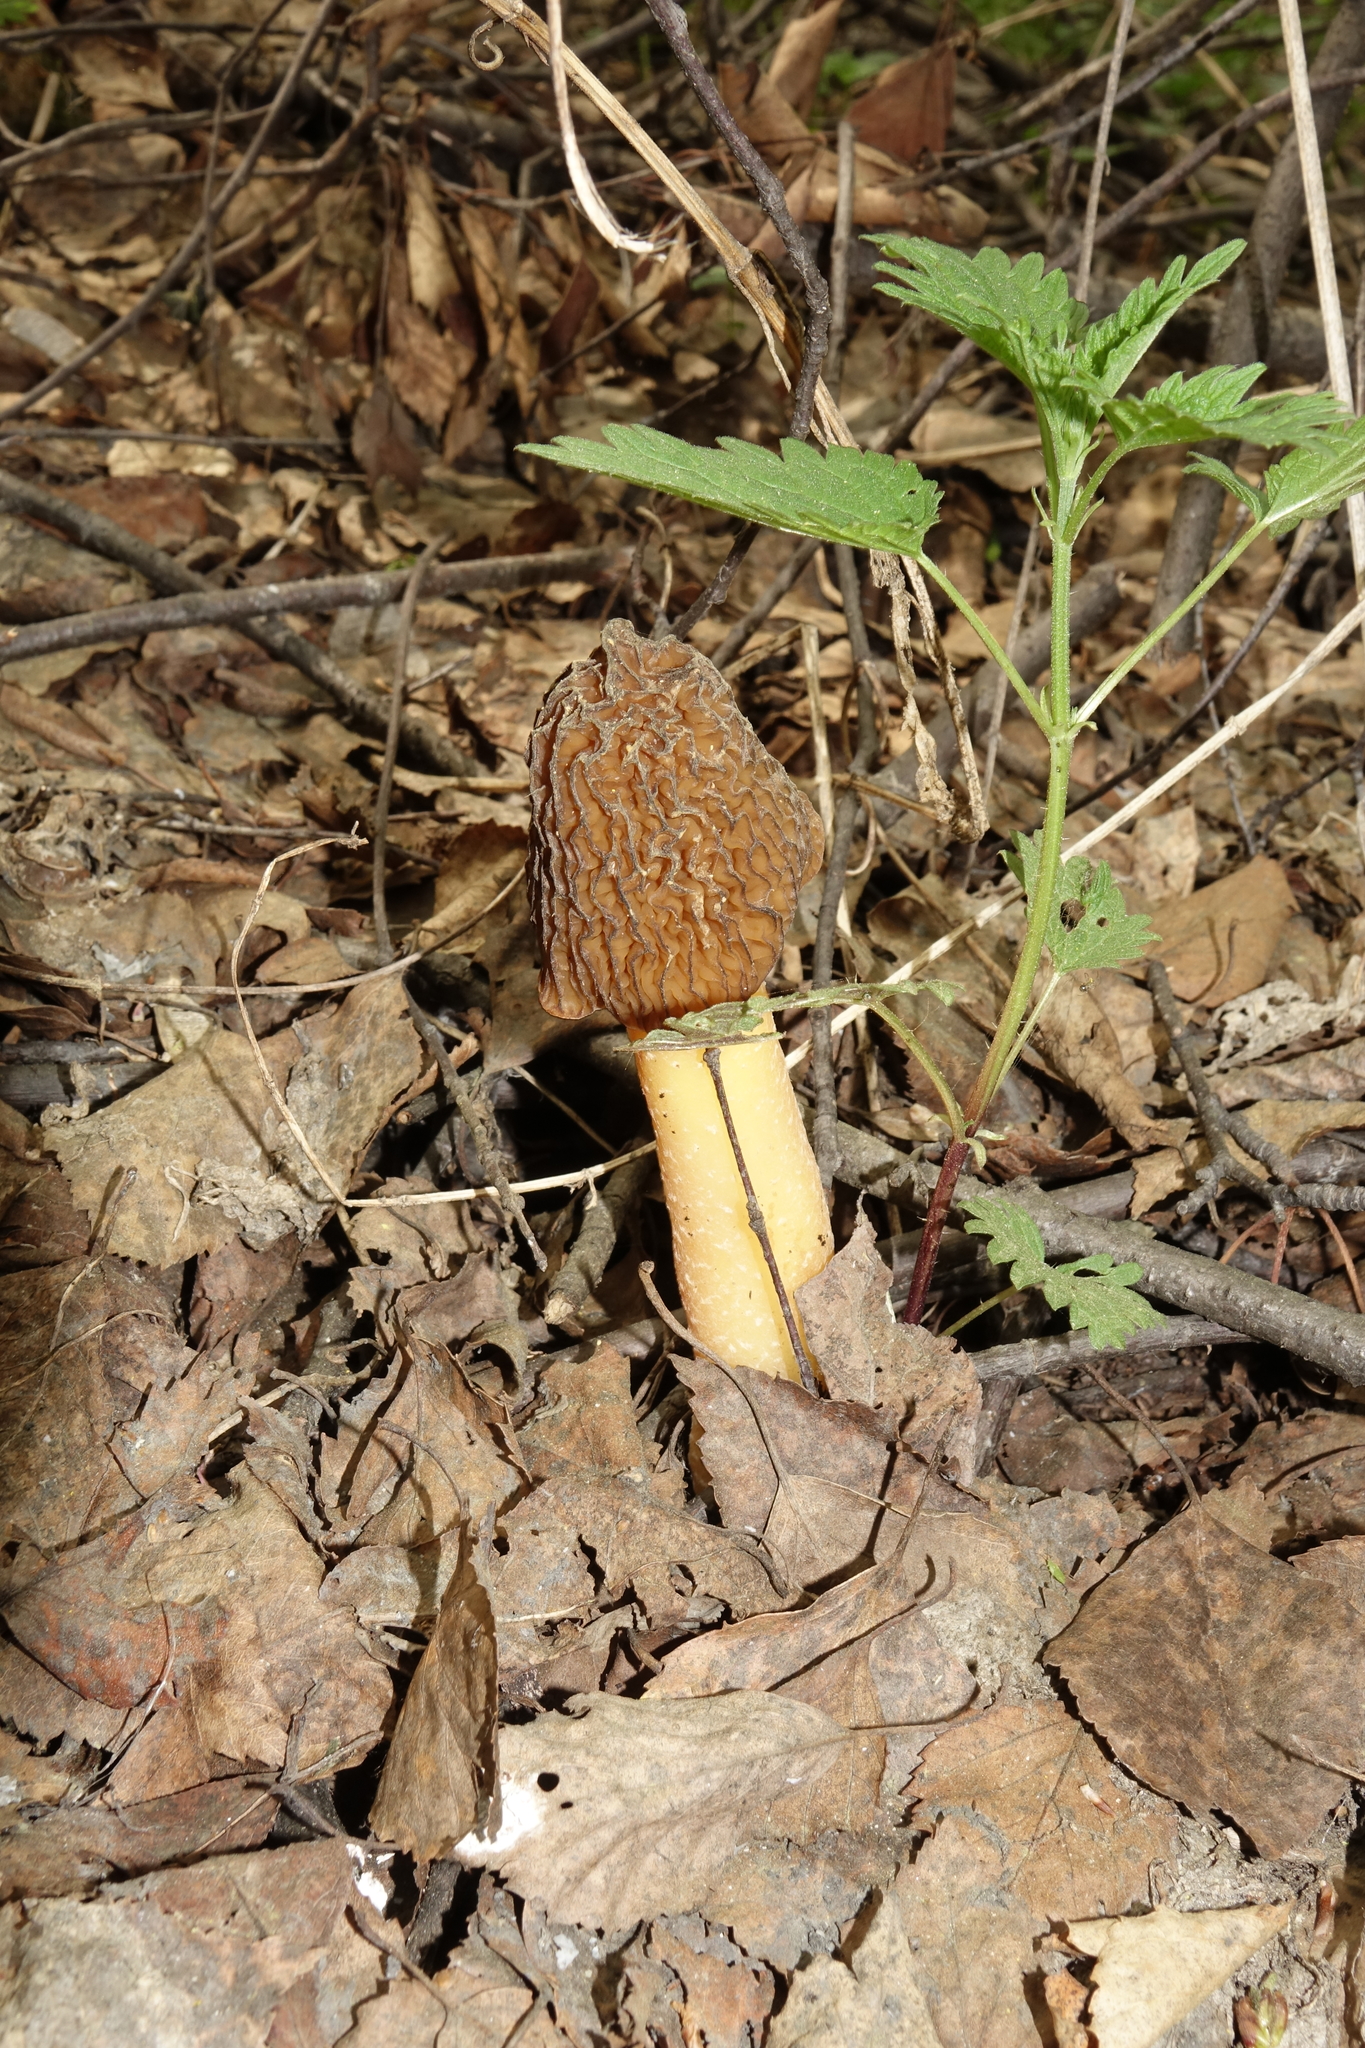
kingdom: Fungi
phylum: Ascomycota
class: Pezizomycetes
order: Pezizales
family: Morchellaceae
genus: Verpa
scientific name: Verpa bohemica
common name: Wrinkled thimble morel
